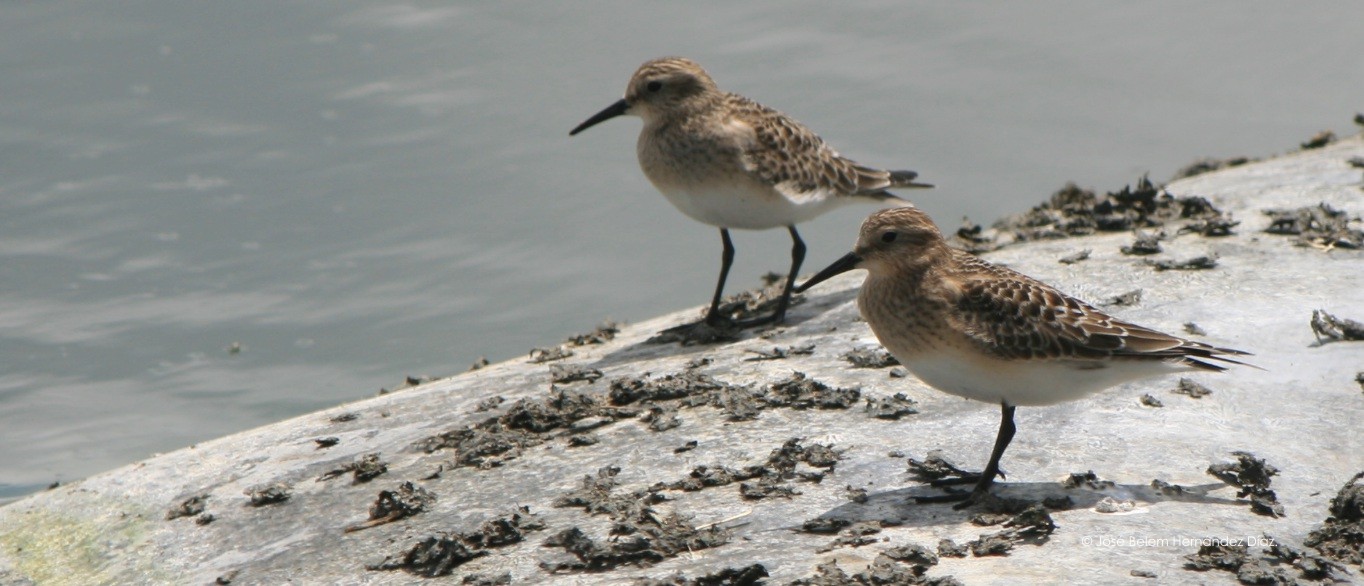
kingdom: Animalia
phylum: Chordata
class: Aves
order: Charadriiformes
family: Scolopacidae
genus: Calidris
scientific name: Calidris bairdii
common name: Baird's sandpiper
